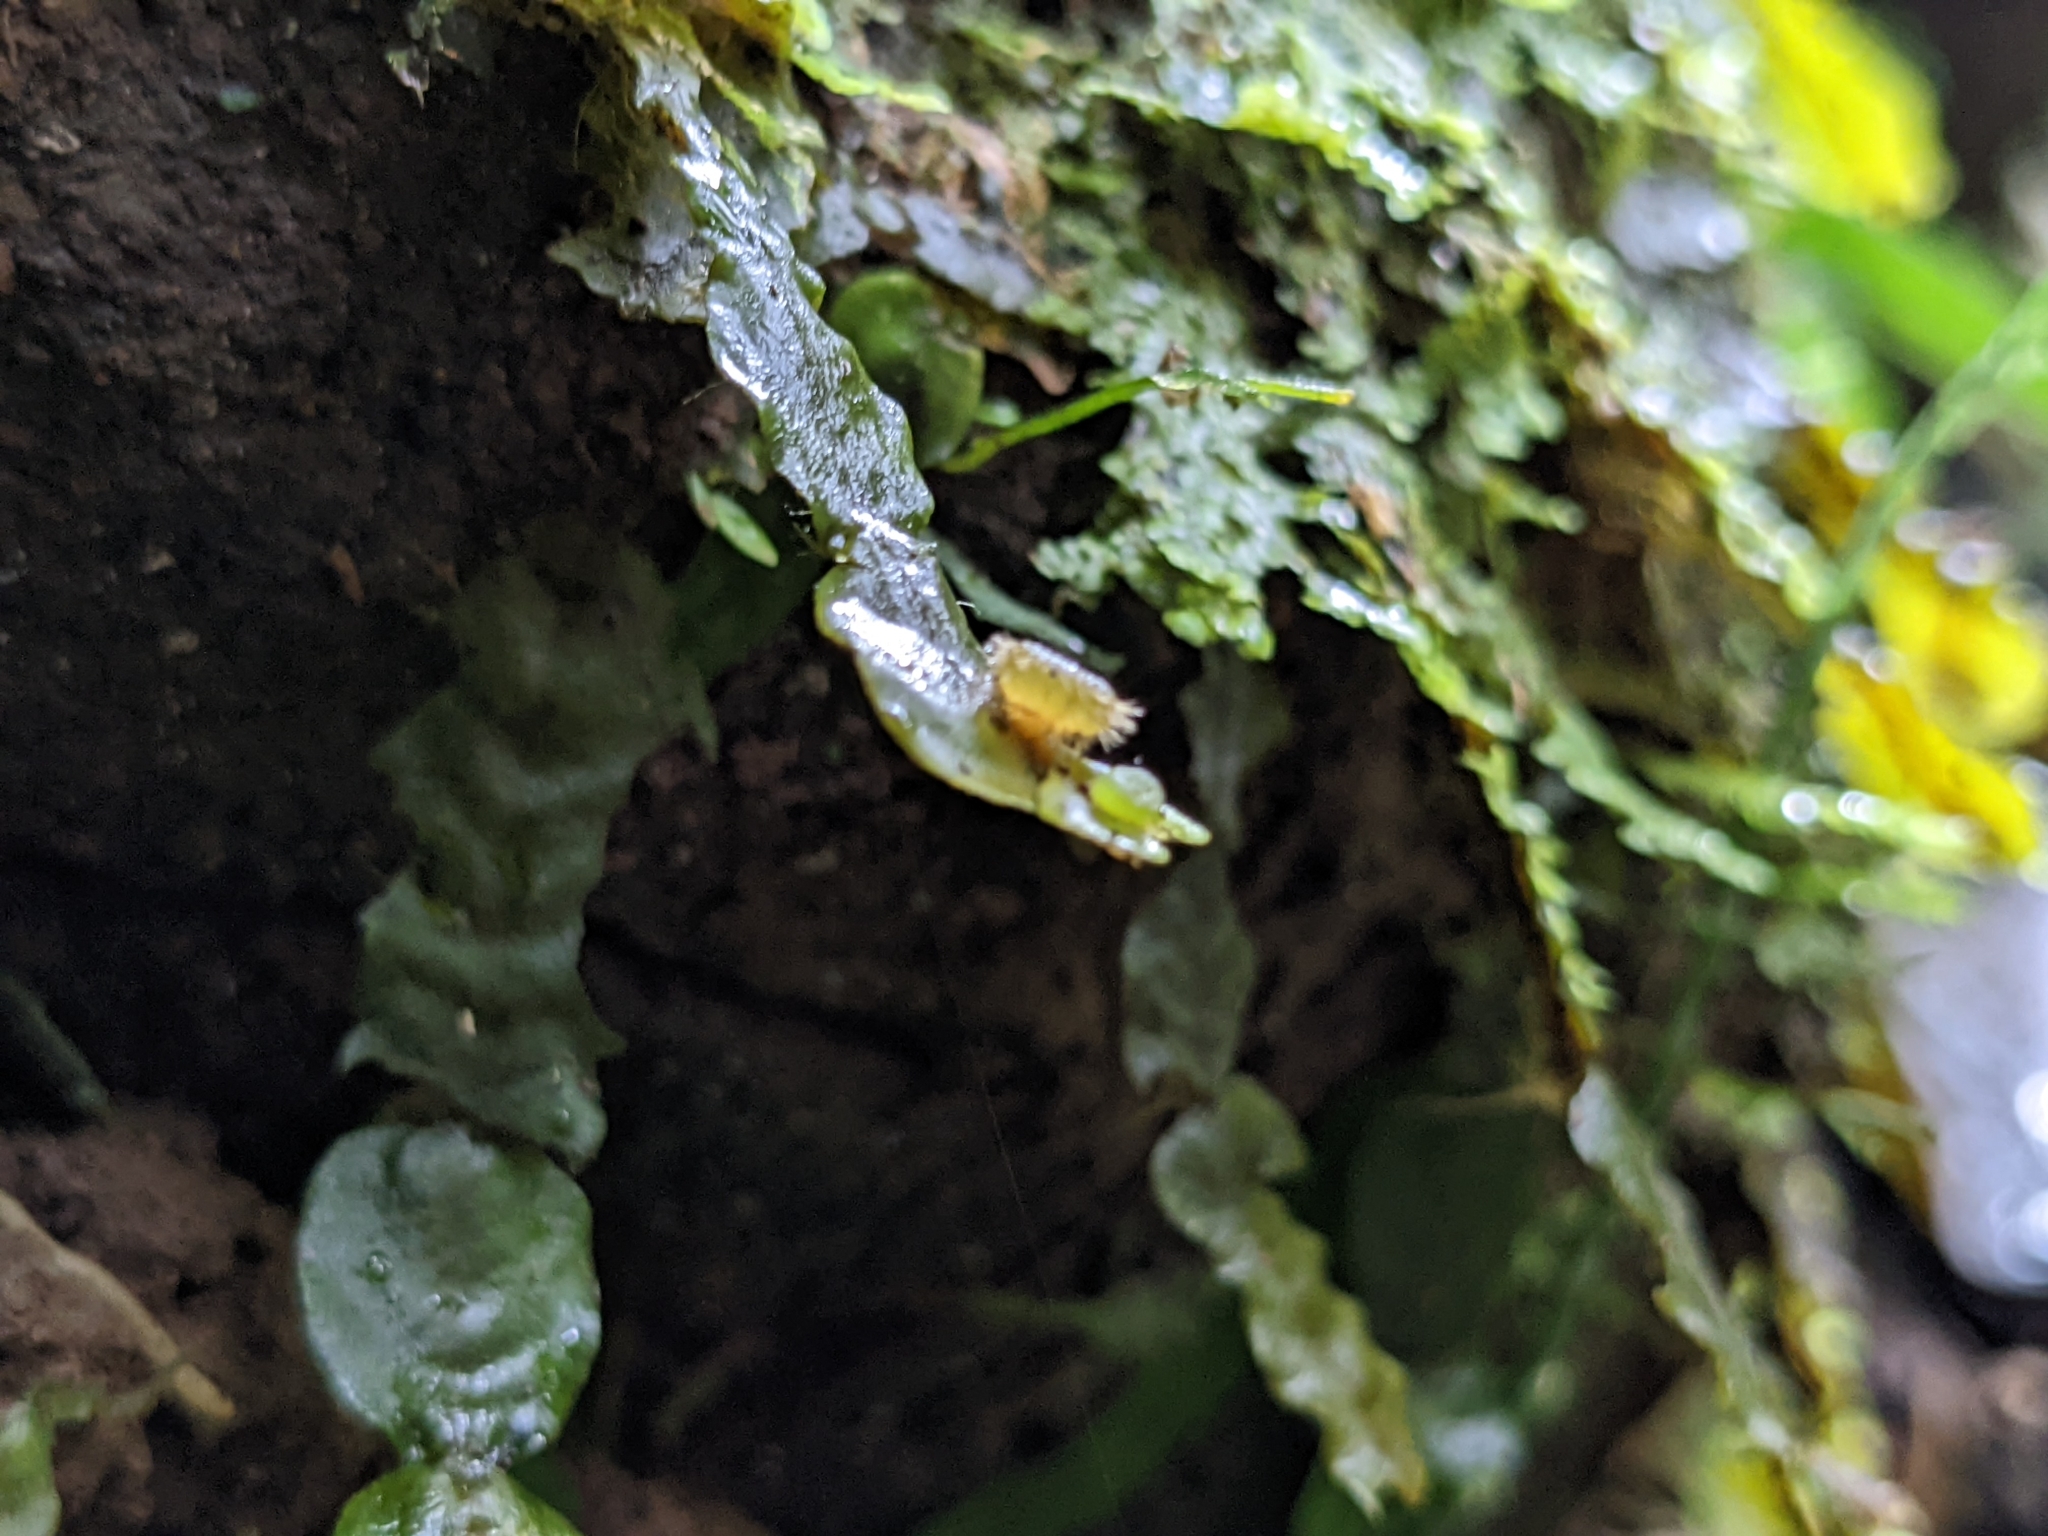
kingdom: Plantae
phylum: Marchantiophyta
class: Marchantiopsida
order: Marchantiales
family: Dumortieraceae
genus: Dumortiera
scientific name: Dumortiera hirsuta
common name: Dumortier's liverwort
